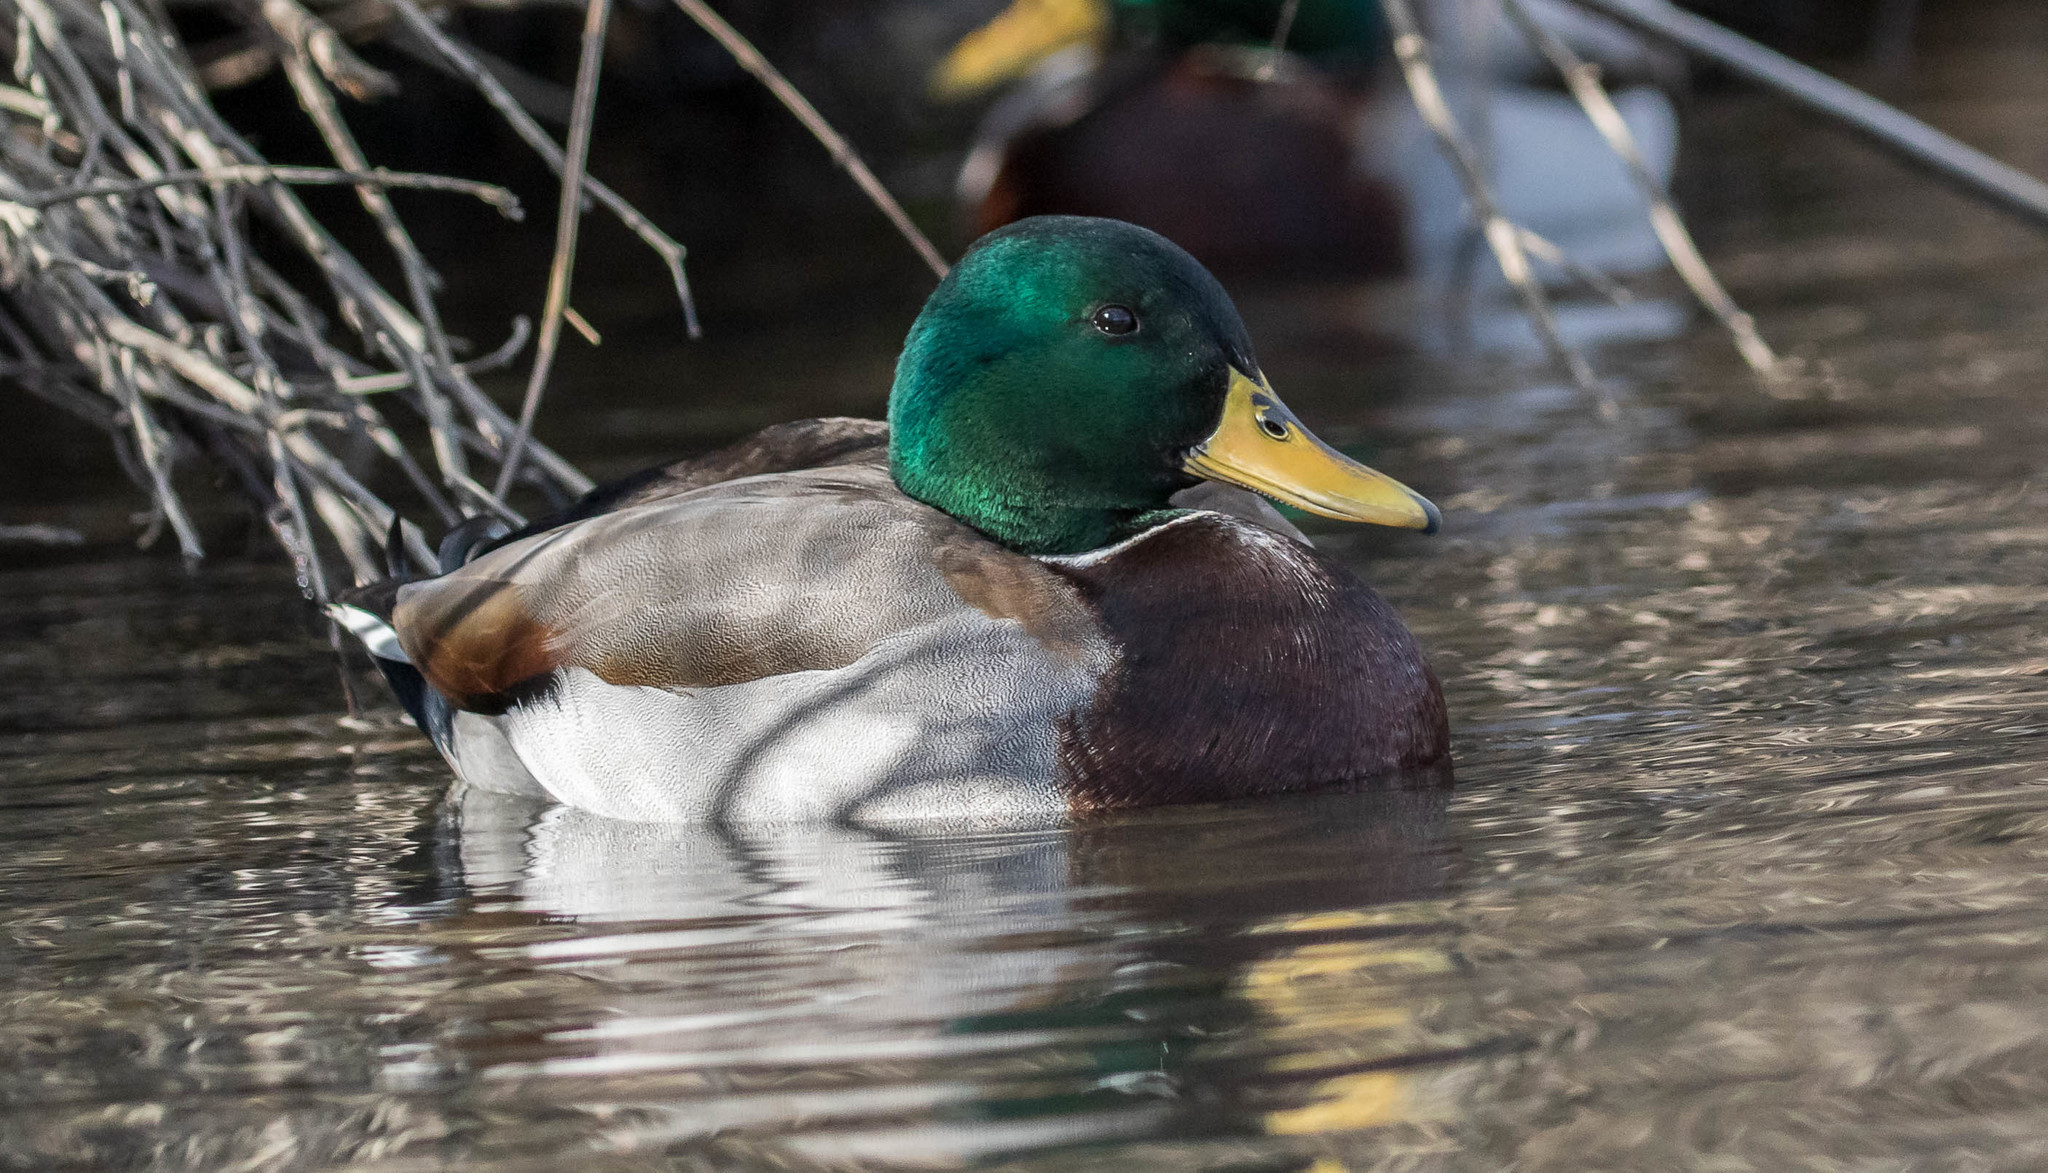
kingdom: Animalia
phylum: Chordata
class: Aves
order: Anseriformes
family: Anatidae
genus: Anas
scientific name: Anas platyrhynchos
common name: Mallard
